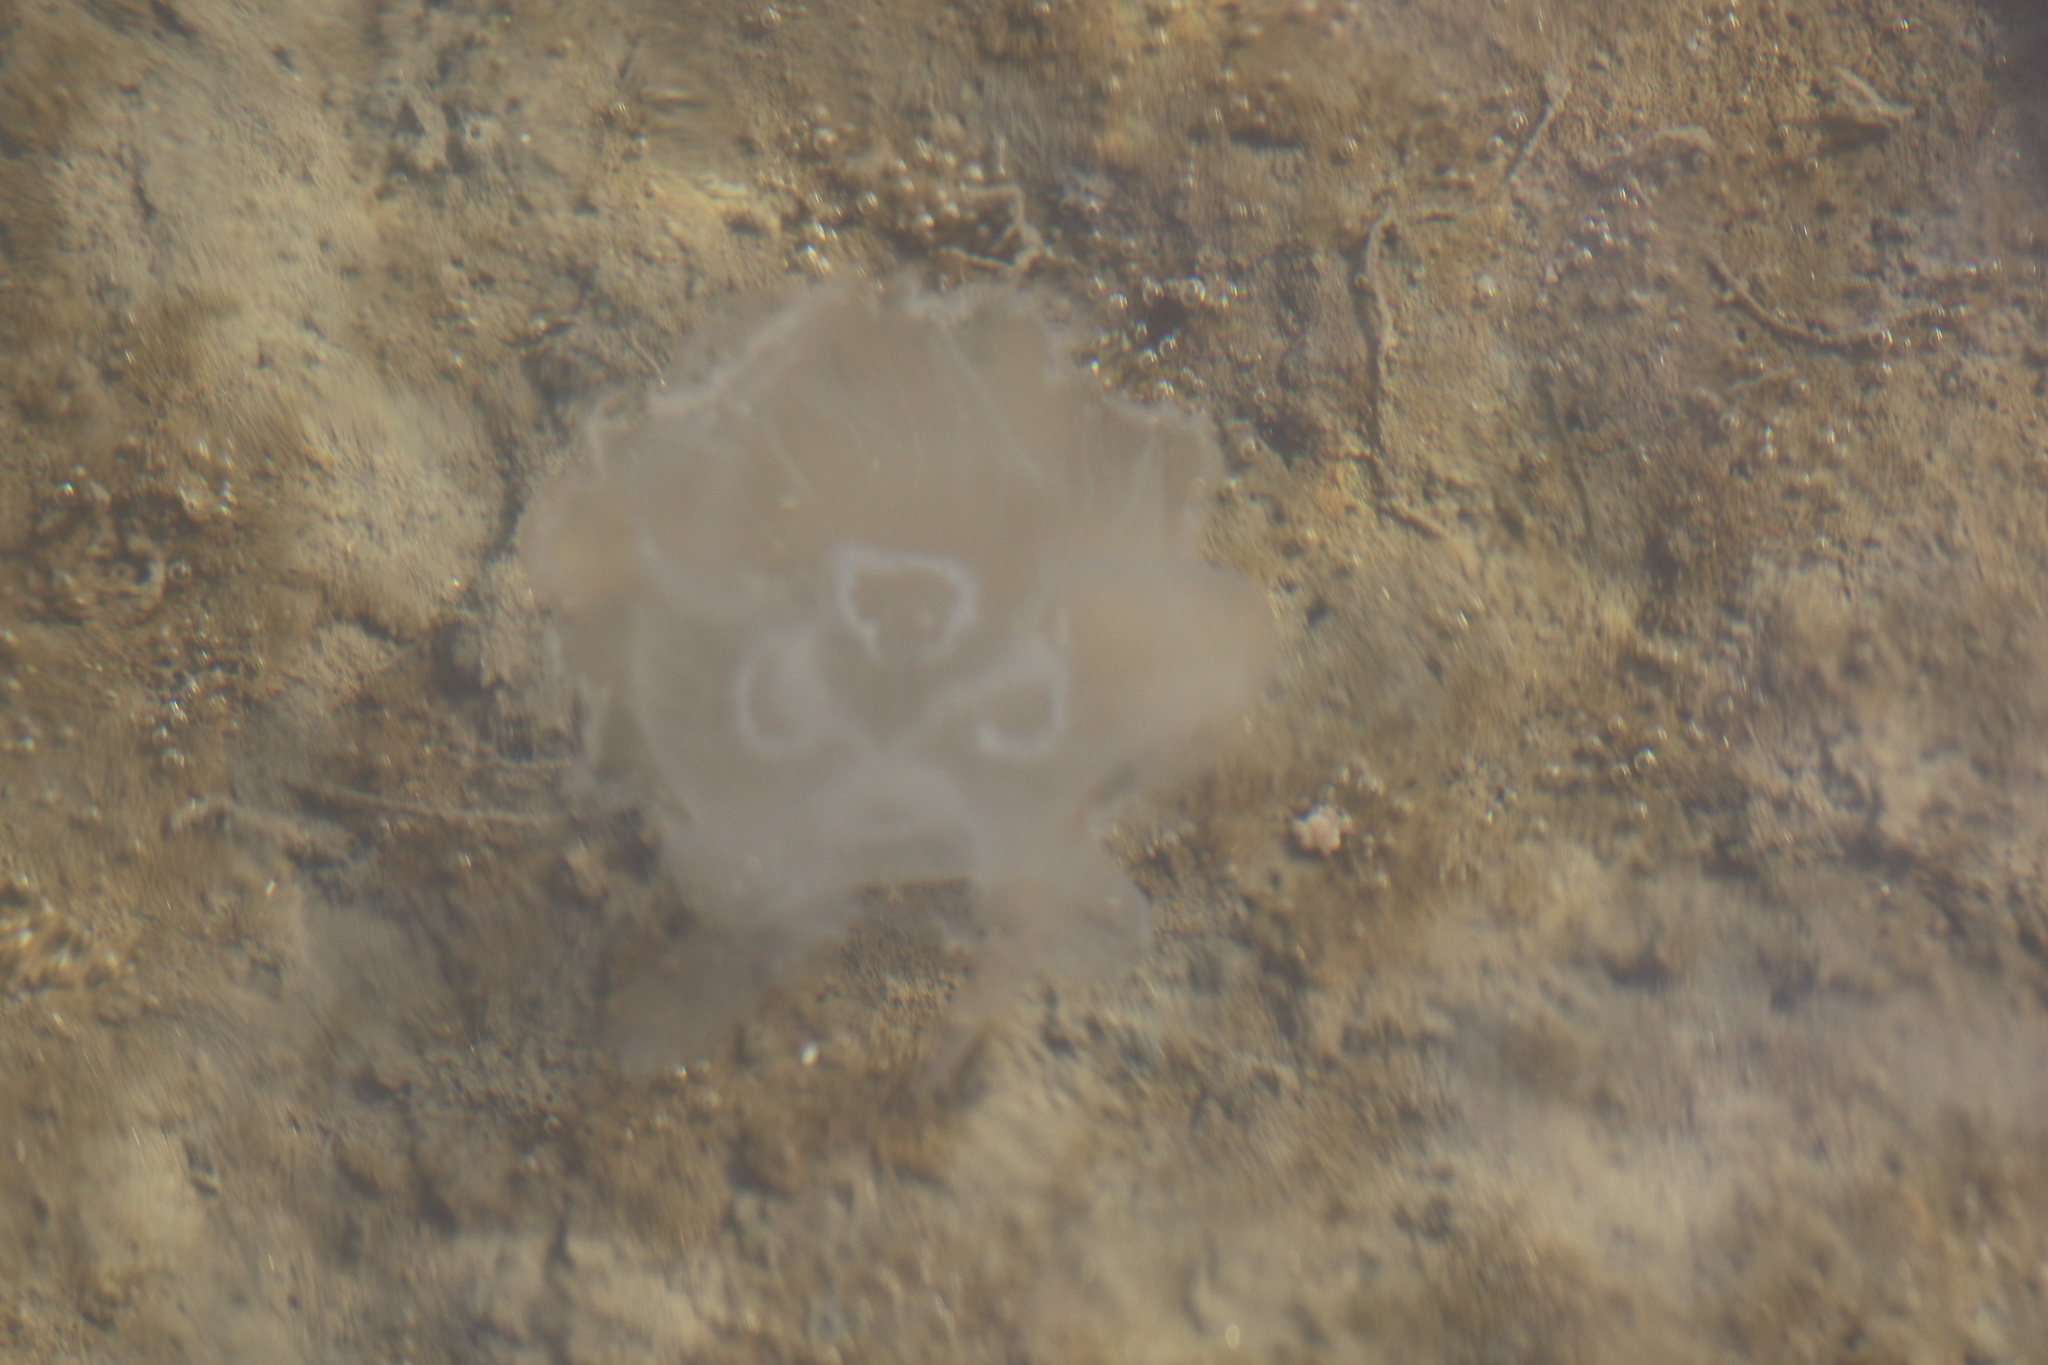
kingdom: Animalia
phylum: Cnidaria
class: Scyphozoa
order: Semaeostomeae
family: Ulmaridae
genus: Aurelia
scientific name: Aurelia coerulea
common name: Moon jellyfish
